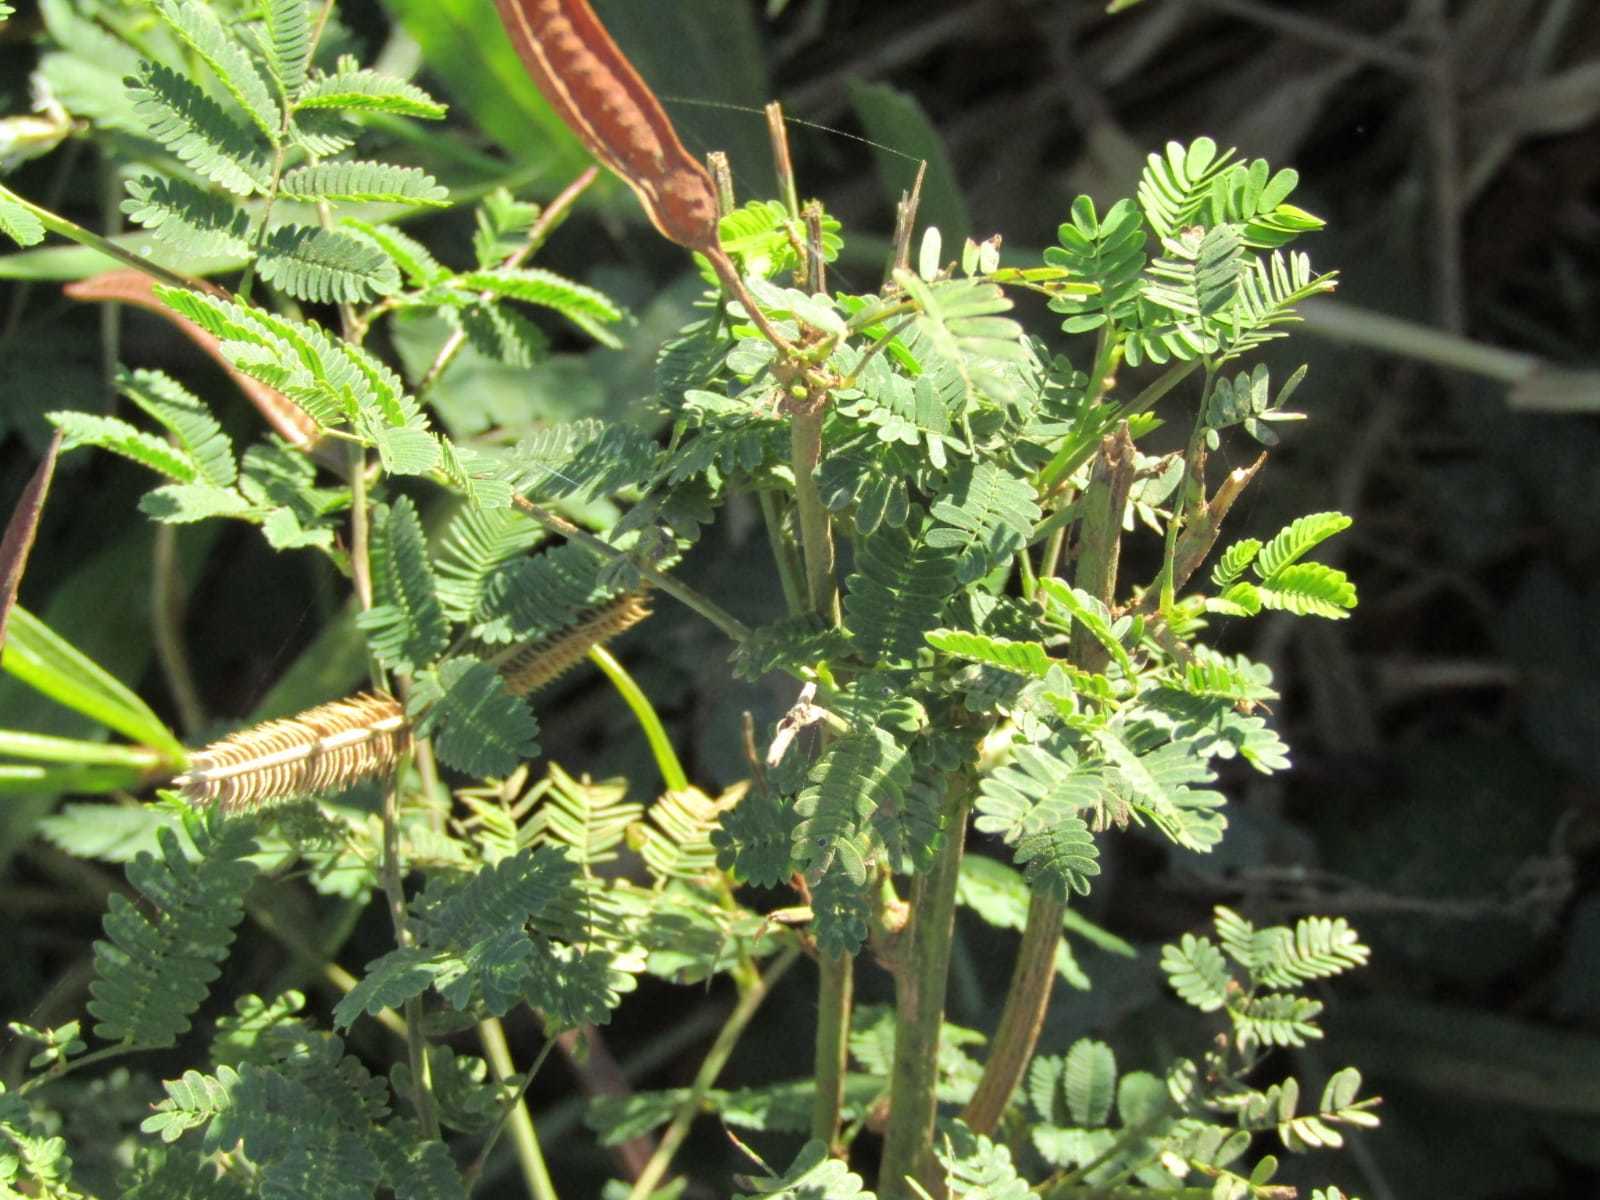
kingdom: Plantae
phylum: Tracheophyta
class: Magnoliopsida
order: Fabales
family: Fabaceae
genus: Neptunia
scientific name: Neptunia plena
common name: Dead and awake
